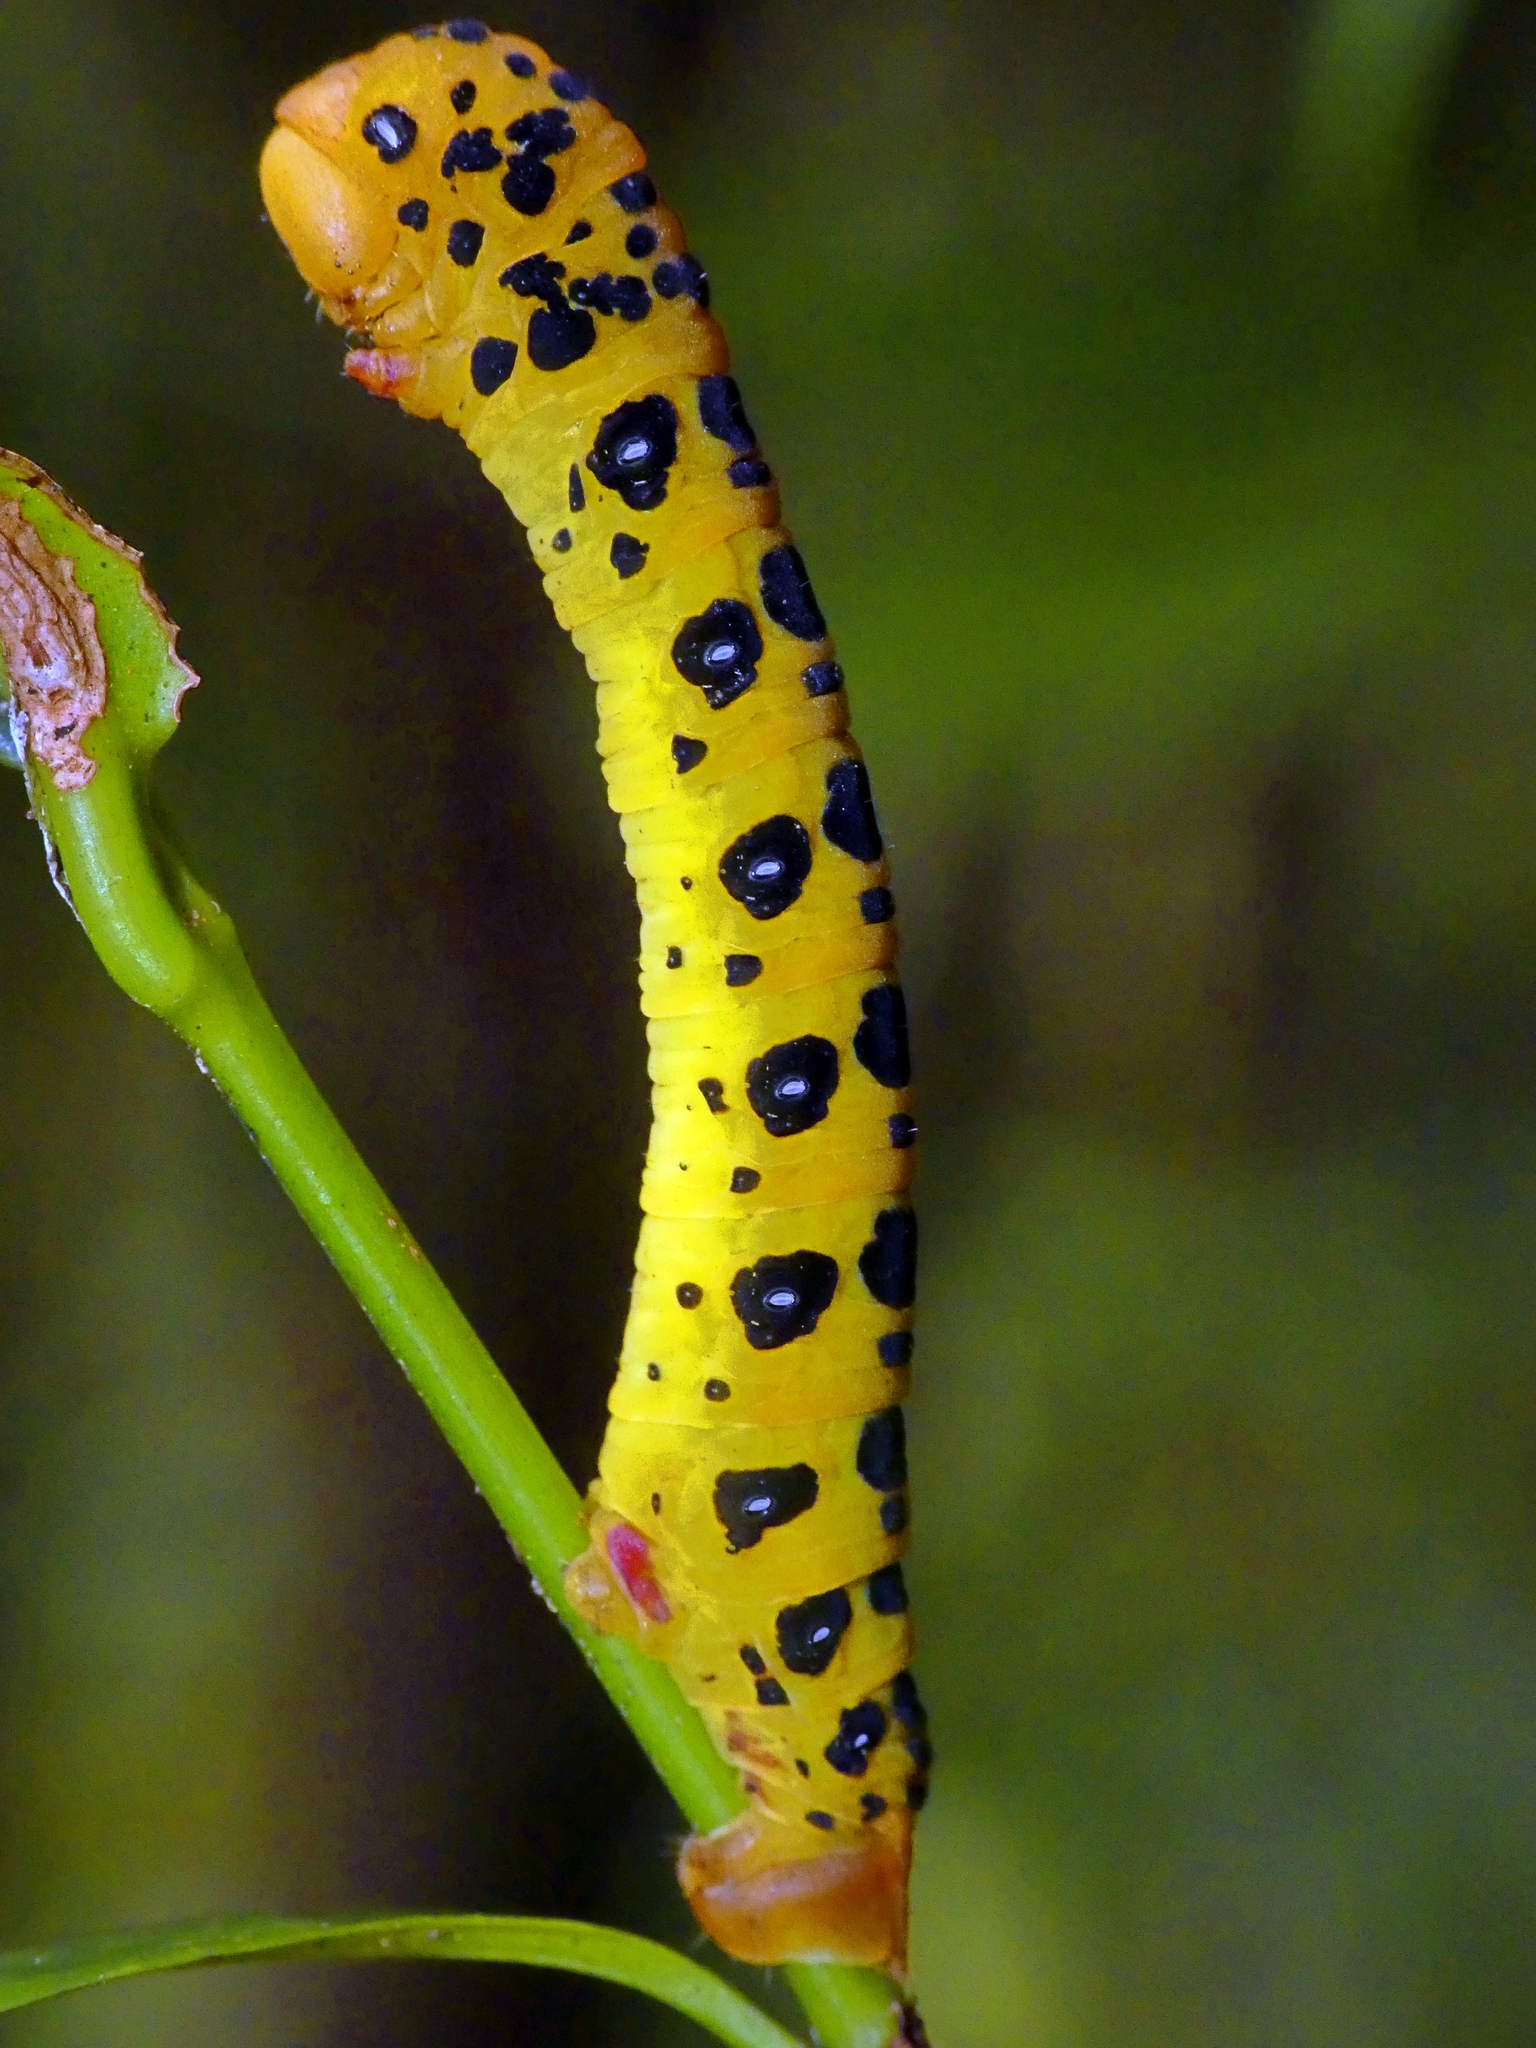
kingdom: Animalia
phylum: Arthropoda
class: Insecta
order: Lepidoptera
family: Geometridae
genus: Dysphania
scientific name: Dysphania numana
